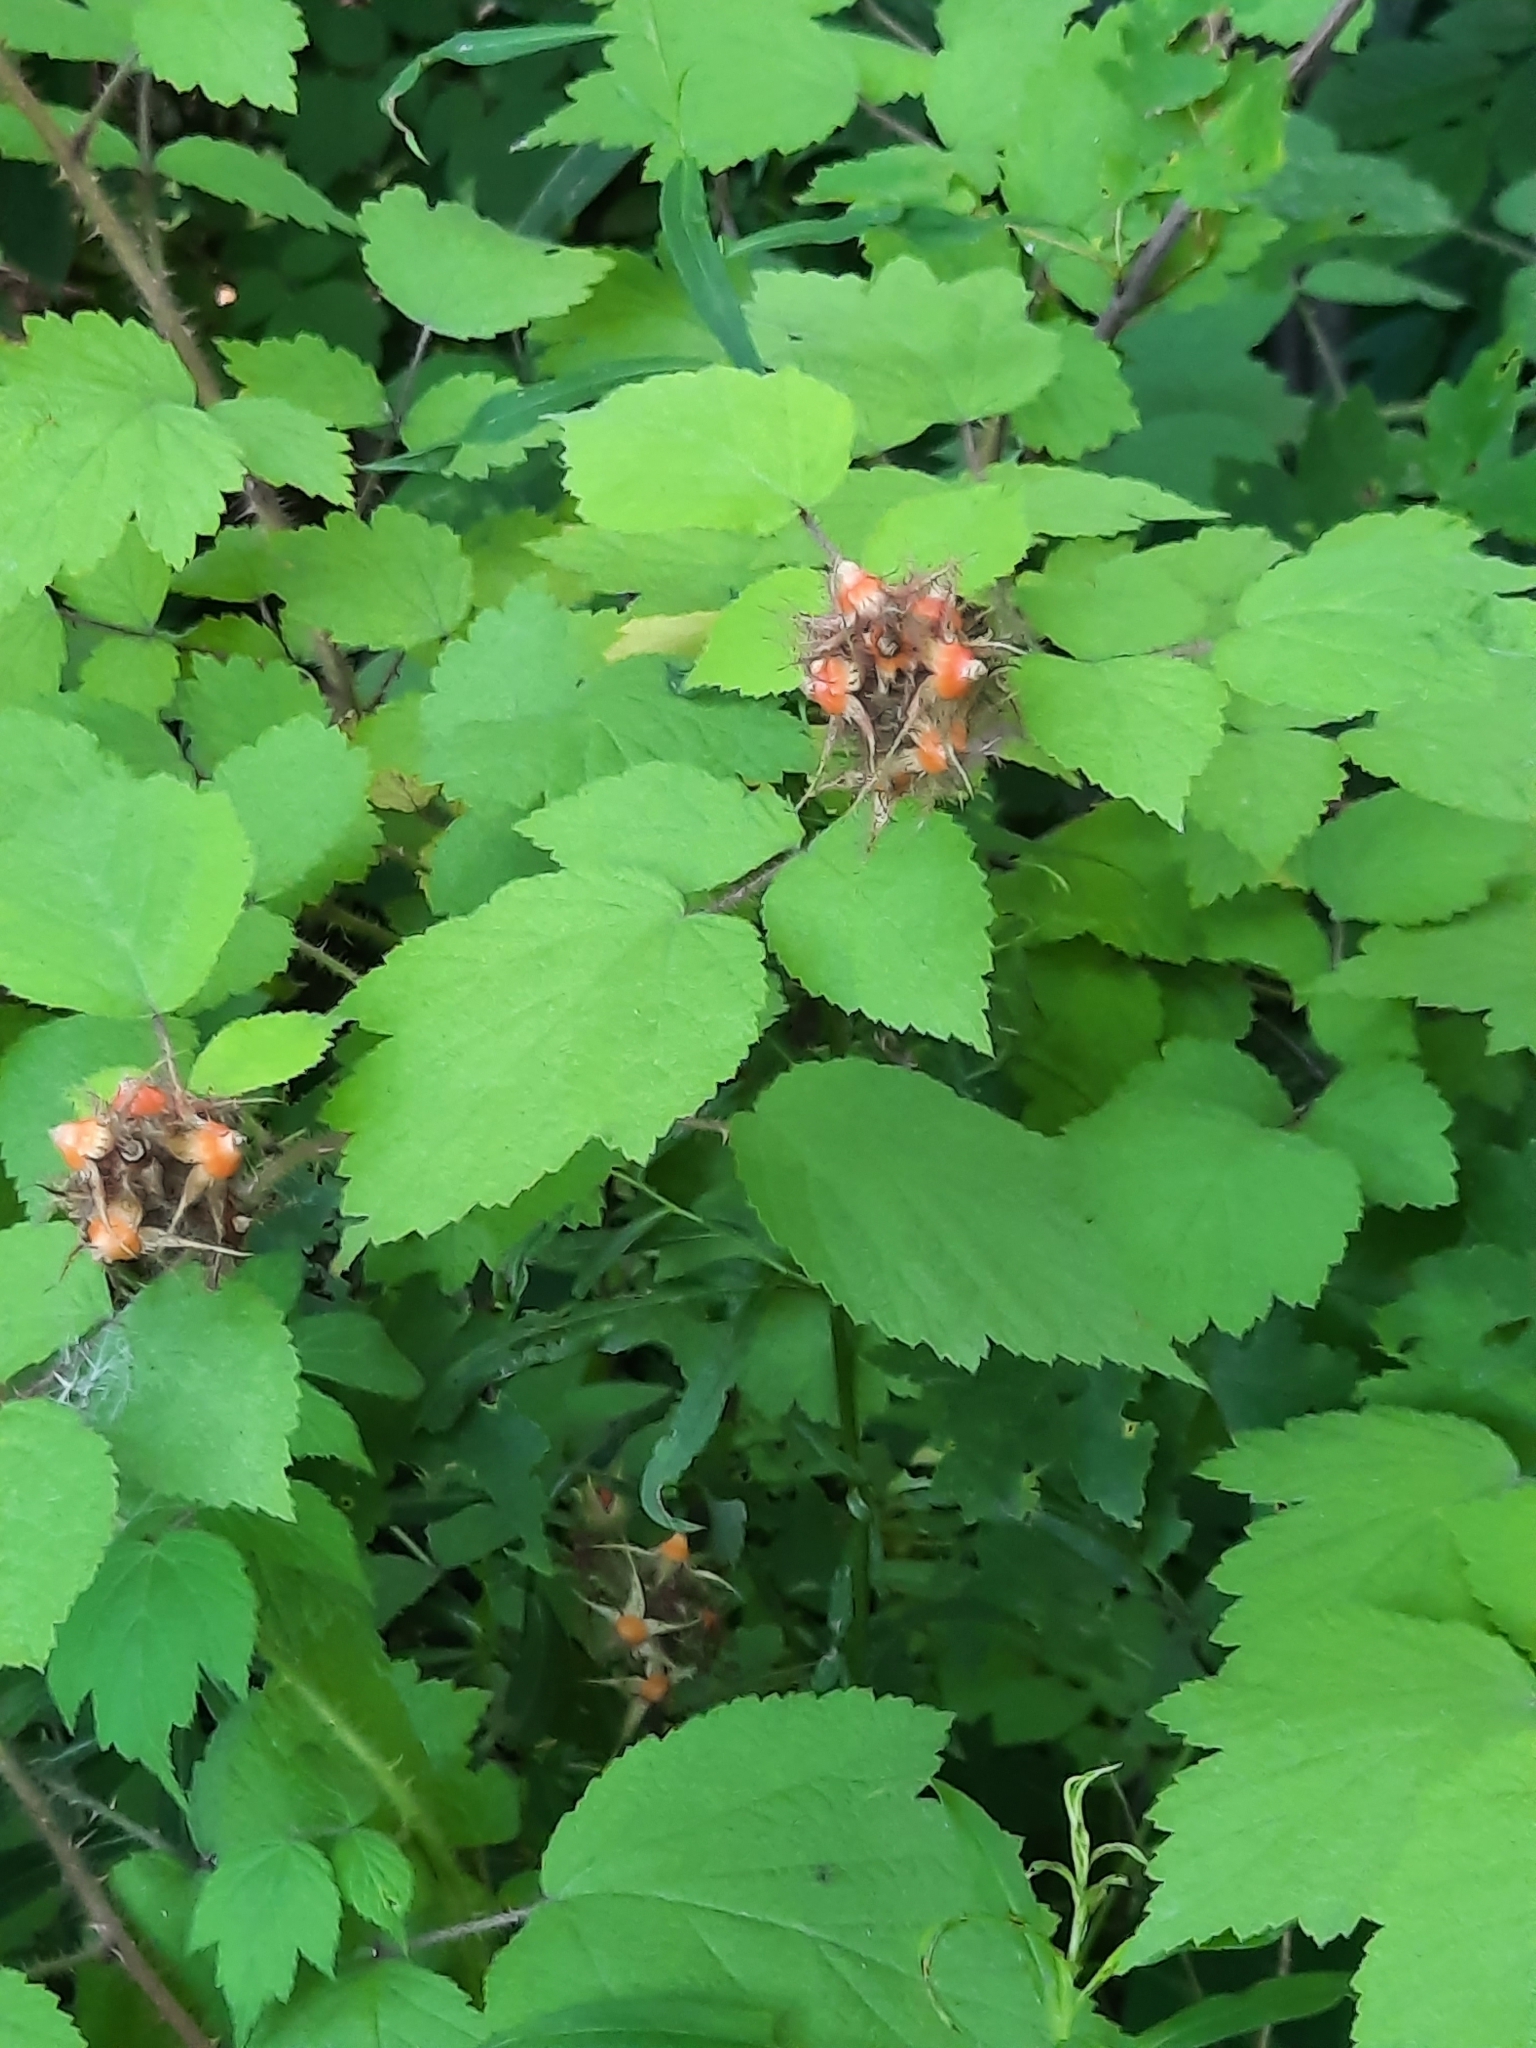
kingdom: Plantae
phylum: Tracheophyta
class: Magnoliopsida
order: Rosales
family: Rosaceae
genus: Rubus
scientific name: Rubus phoenicolasius
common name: Japanese wineberry
